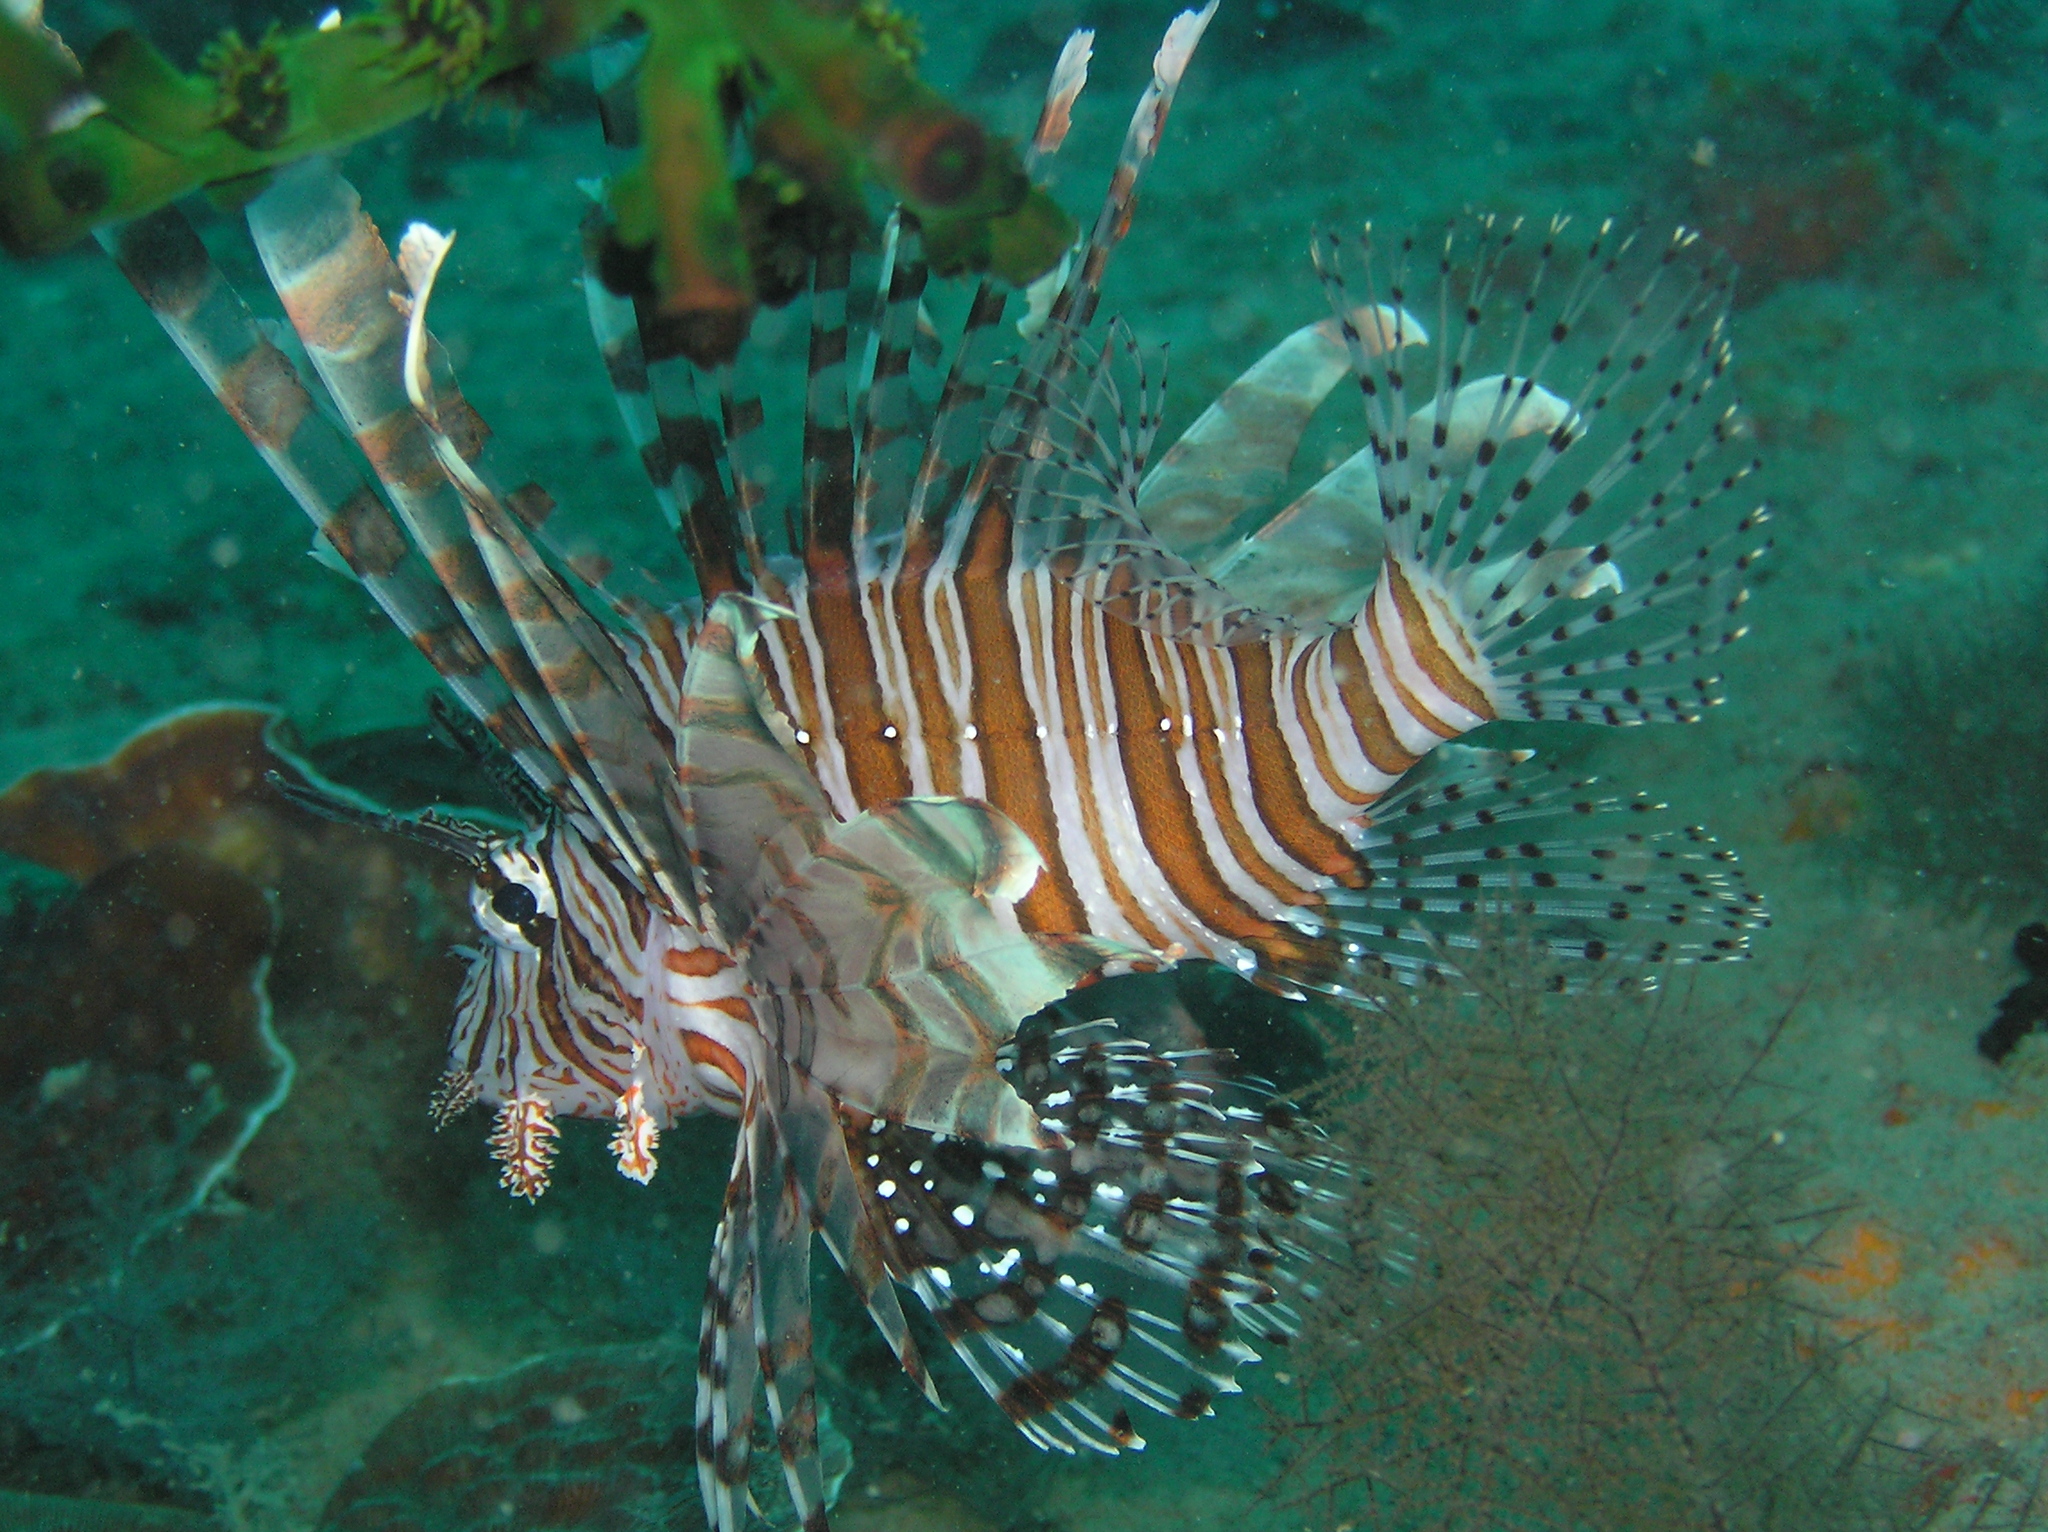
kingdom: Animalia
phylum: Chordata
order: Scorpaeniformes
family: Scorpaenidae
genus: Pterois
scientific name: Pterois volitans
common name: Lionfish
